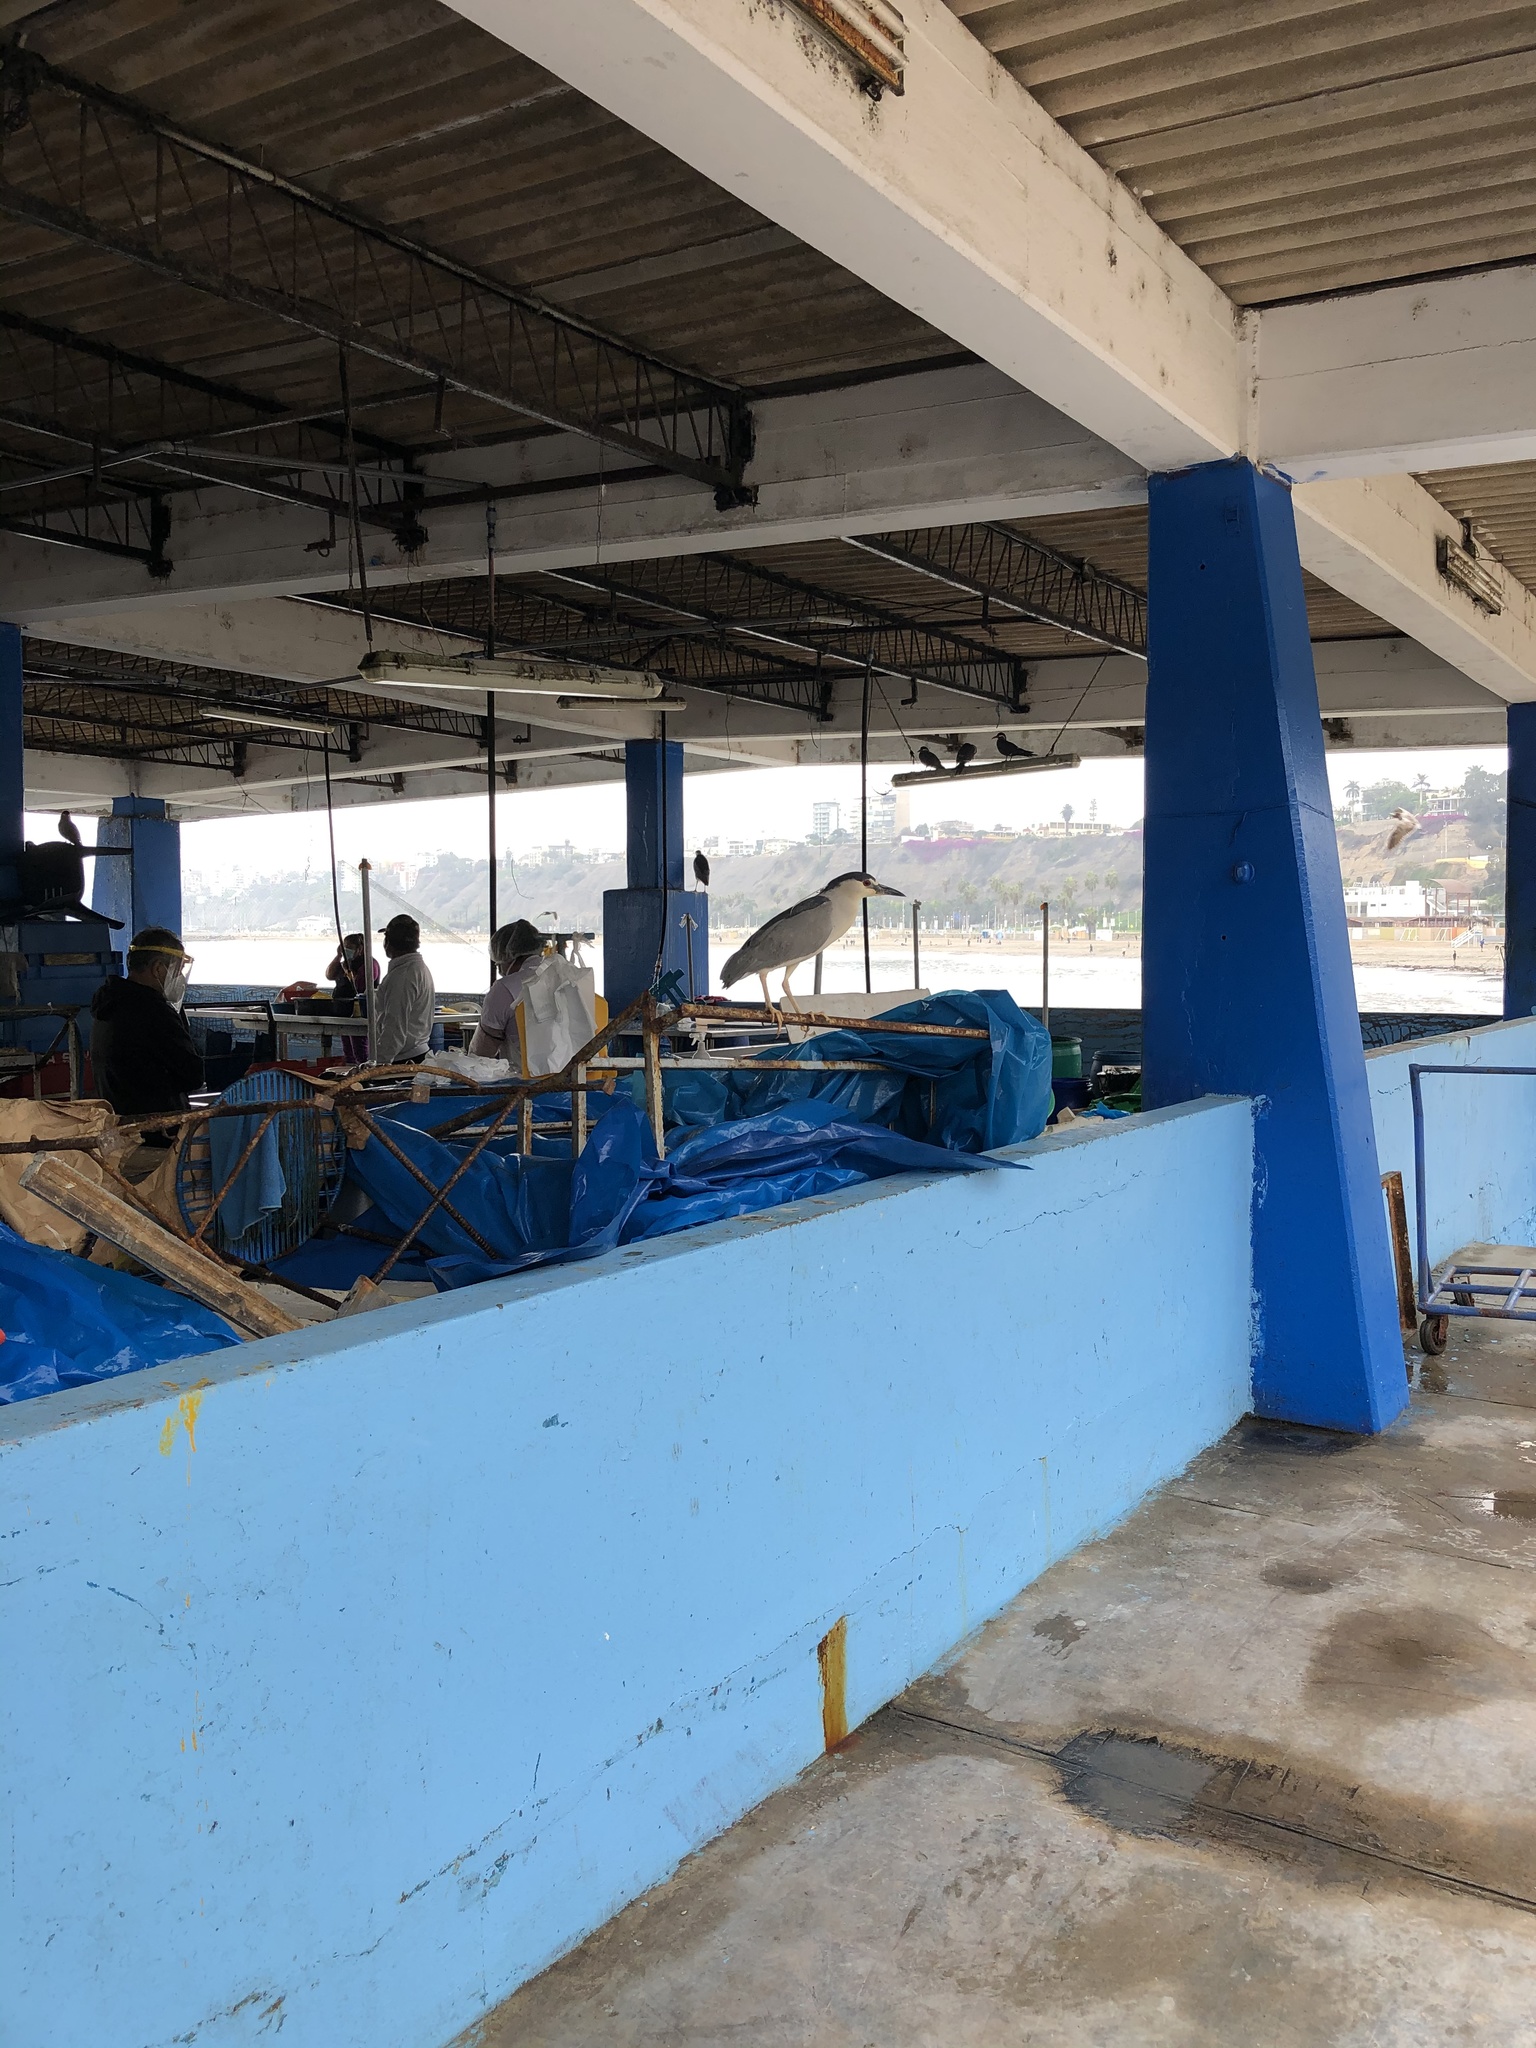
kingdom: Animalia
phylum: Chordata
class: Aves
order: Pelecaniformes
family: Ardeidae
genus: Nycticorax
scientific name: Nycticorax nycticorax
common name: Black-crowned night heron
